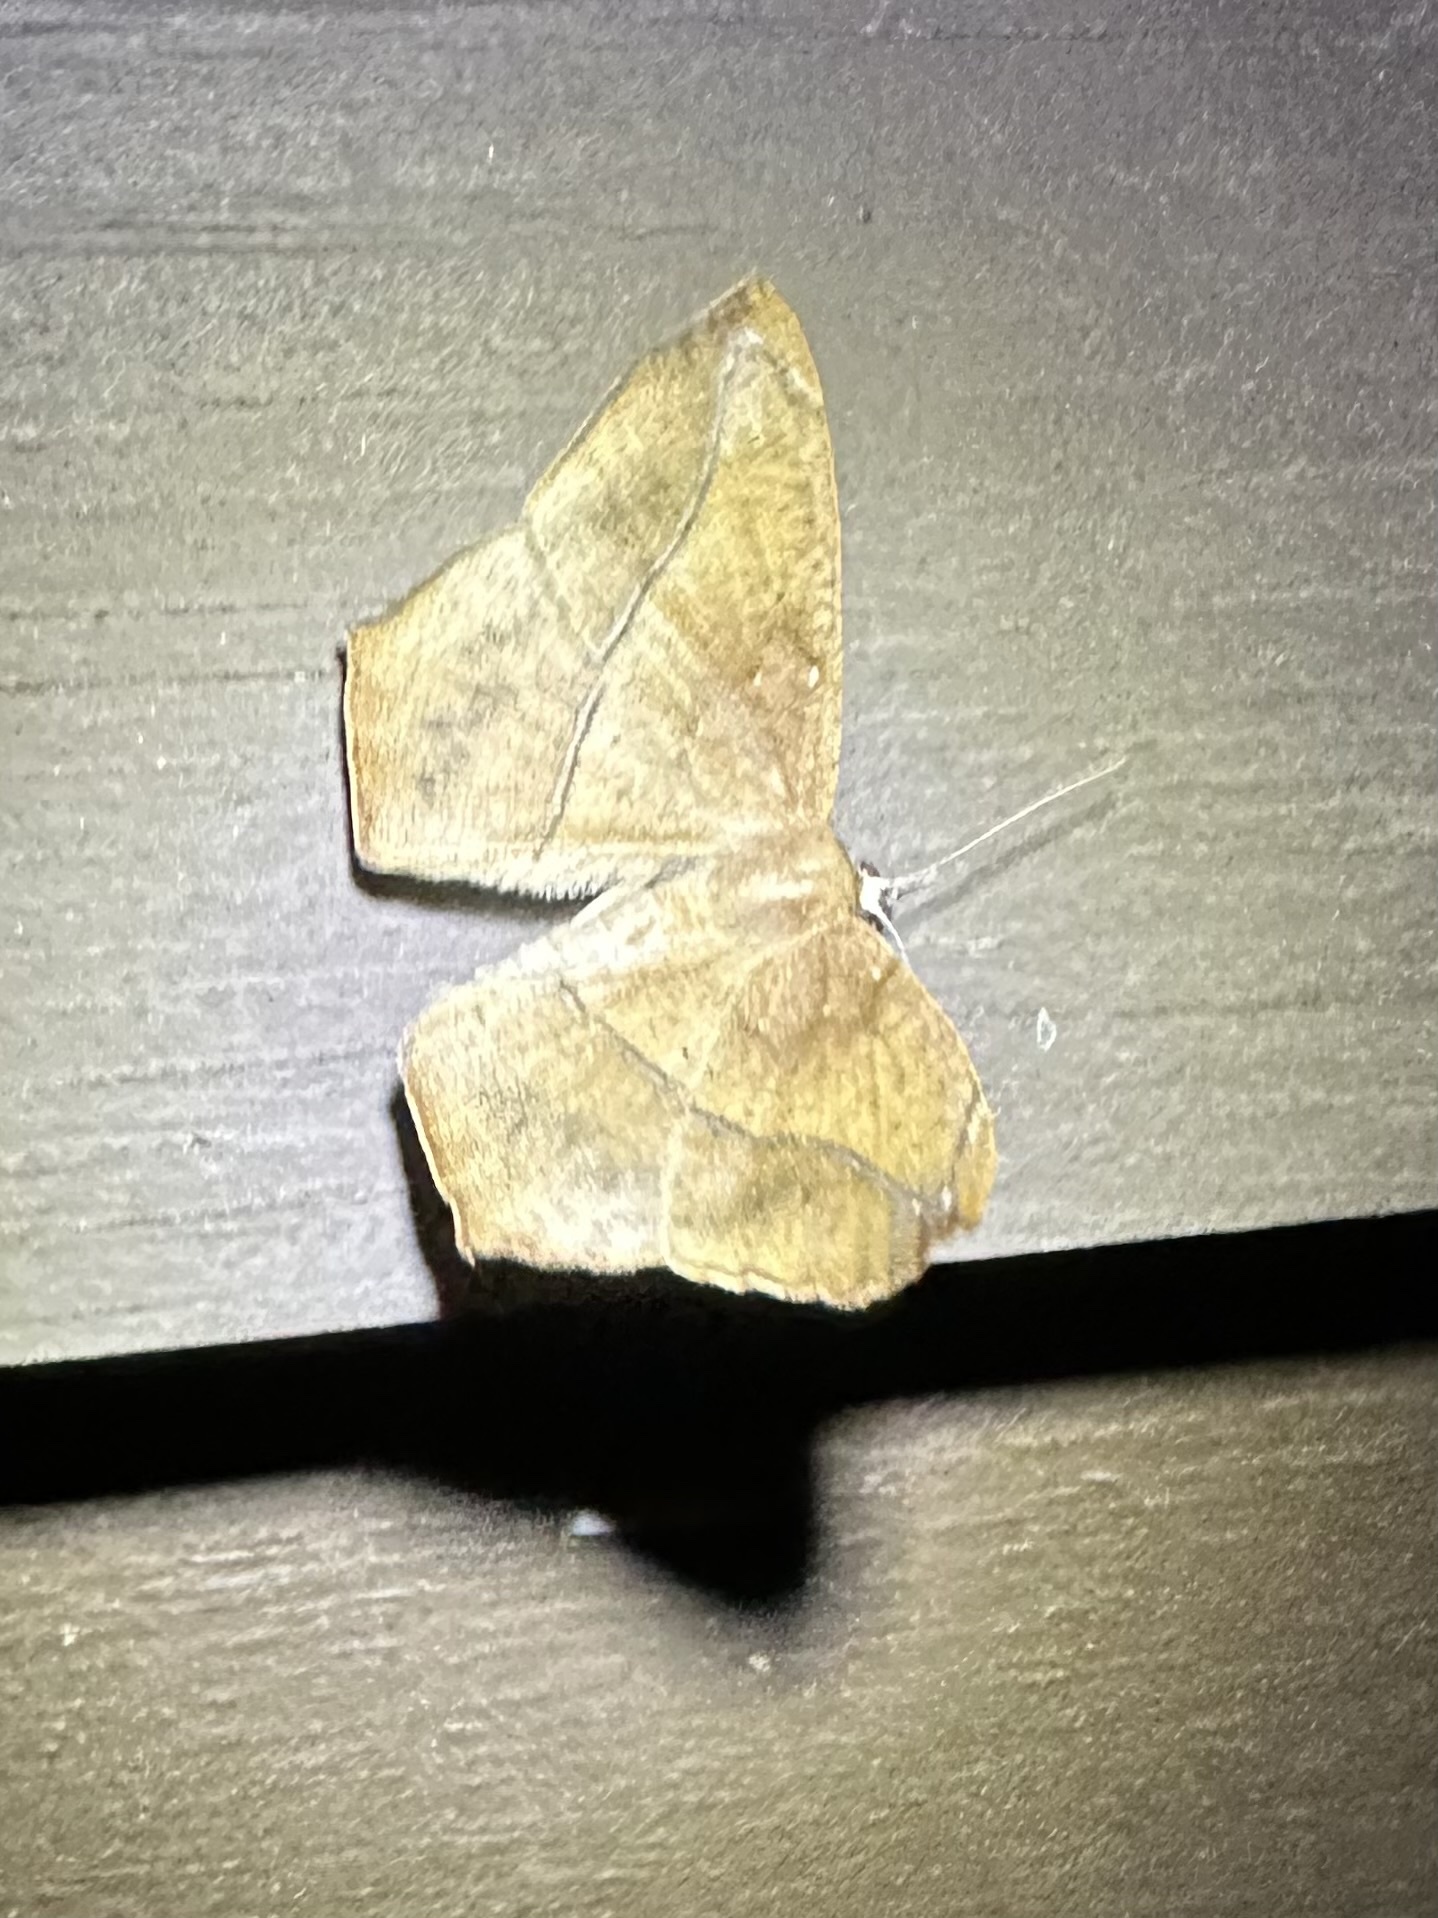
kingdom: Animalia
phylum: Arthropoda
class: Insecta
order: Lepidoptera
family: Geometridae
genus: Prochoerodes
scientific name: Prochoerodes lineola
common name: Large maple spanworm
